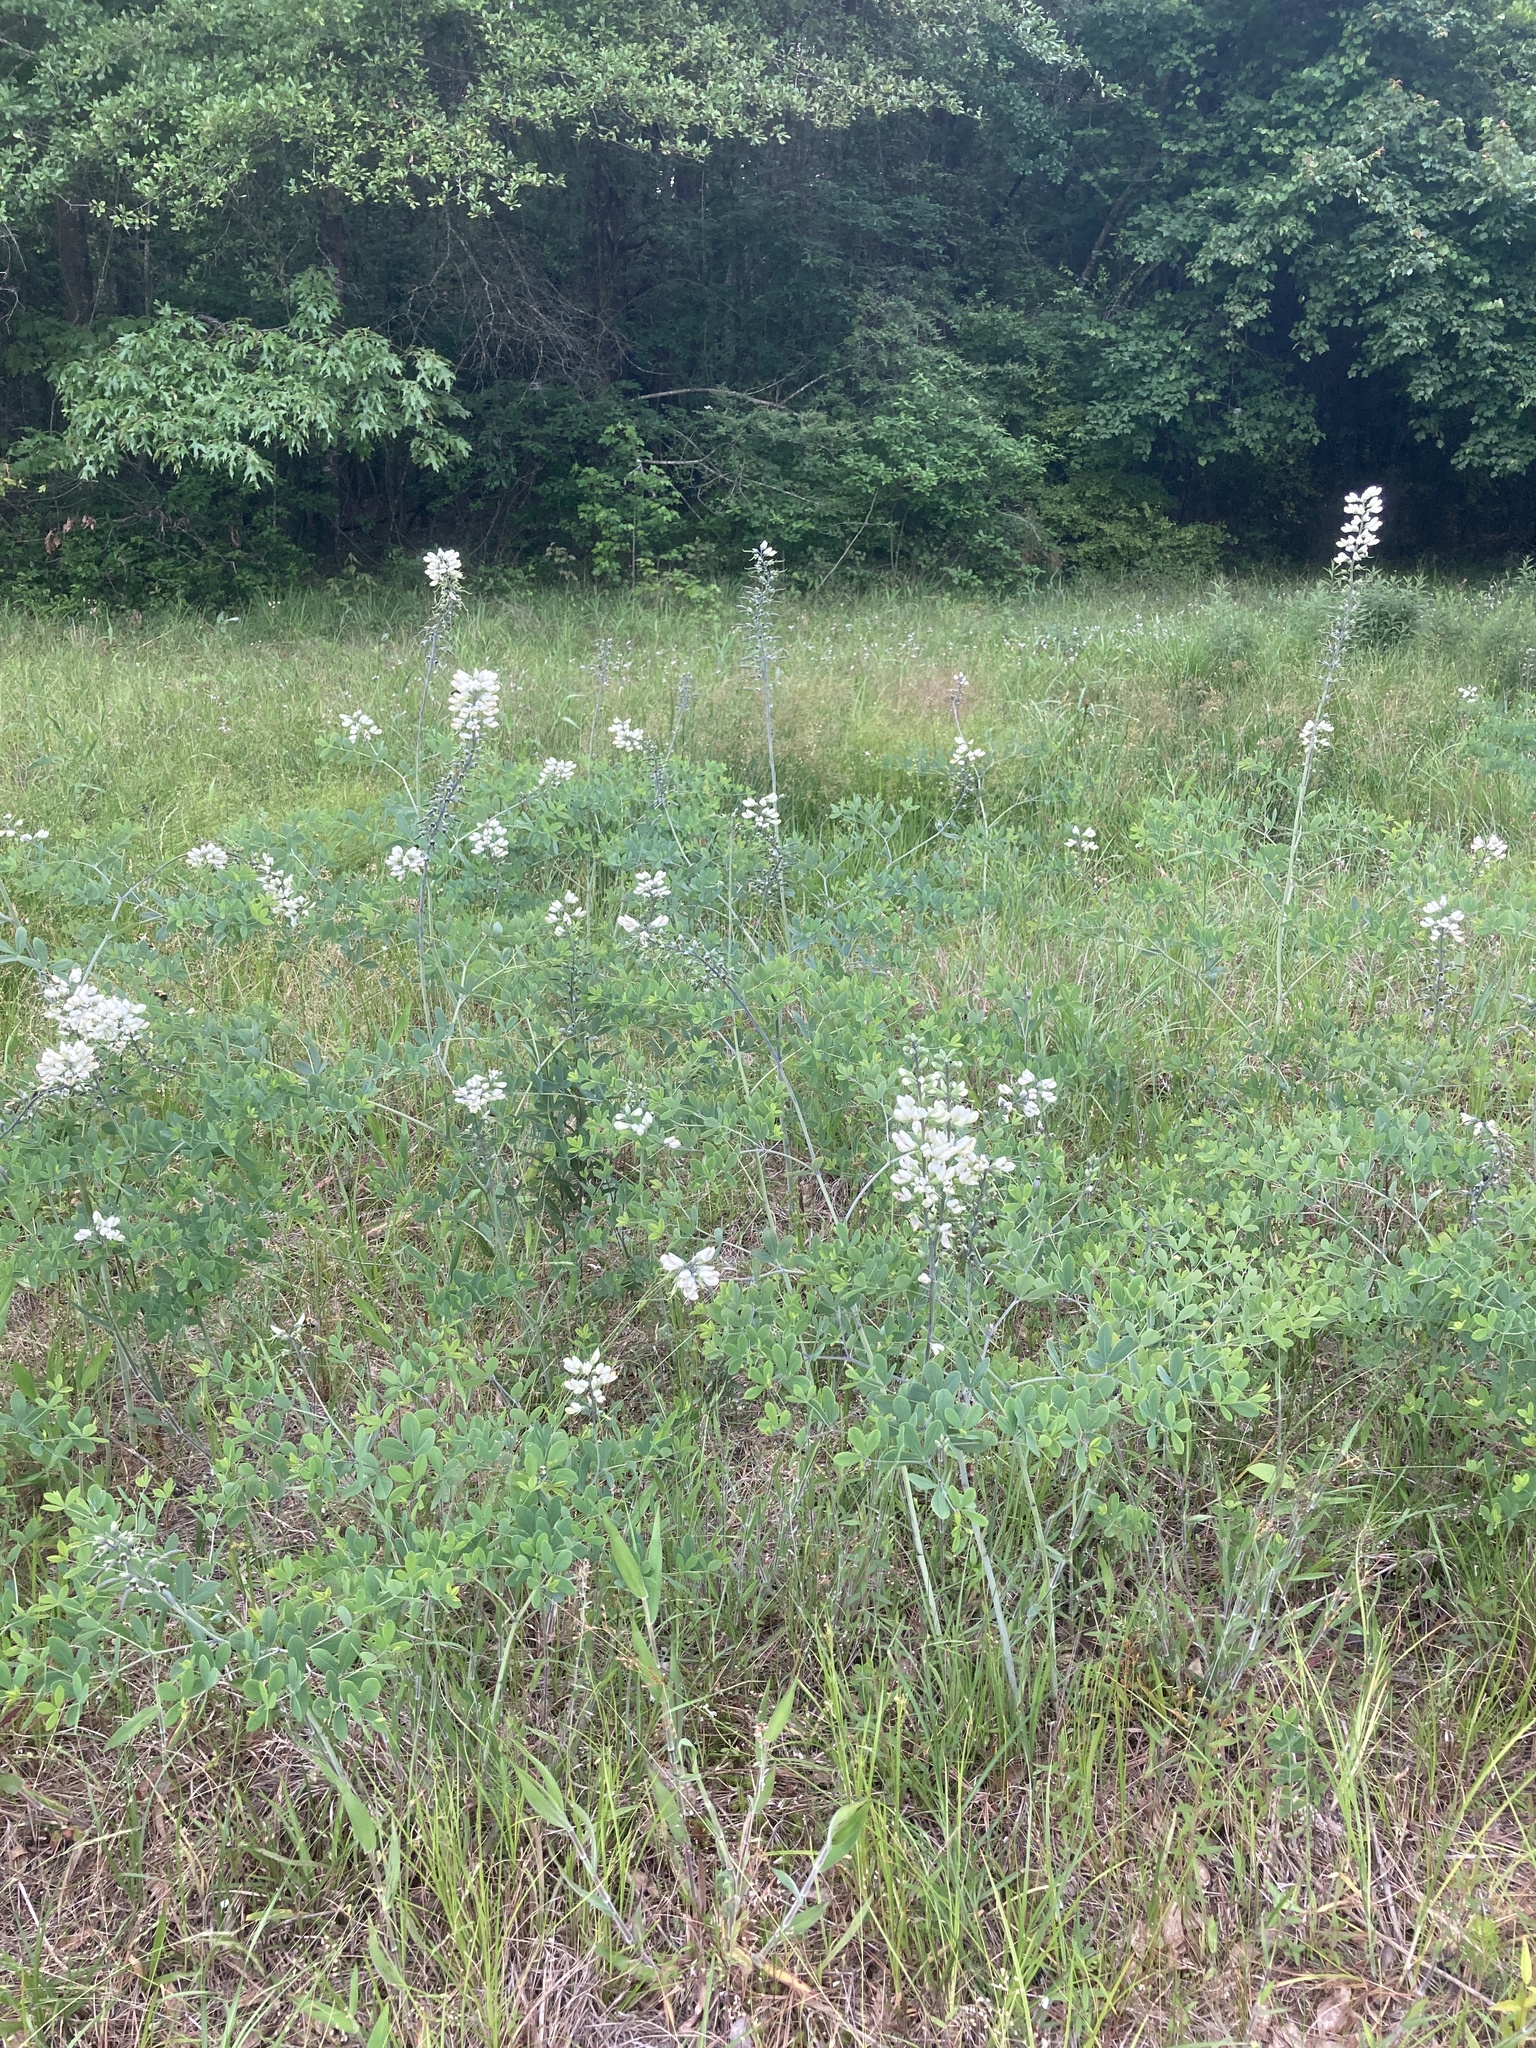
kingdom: Plantae
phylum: Tracheophyta
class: Magnoliopsida
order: Fabales
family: Fabaceae
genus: Baptisia
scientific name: Baptisia alba
